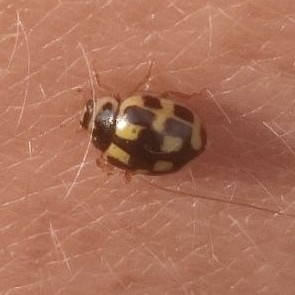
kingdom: Animalia
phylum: Arthropoda
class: Insecta
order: Coleoptera
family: Coccinellidae
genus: Propylaea
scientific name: Propylaea quatuordecimpunctata
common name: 14-spotted ladybird beetle
